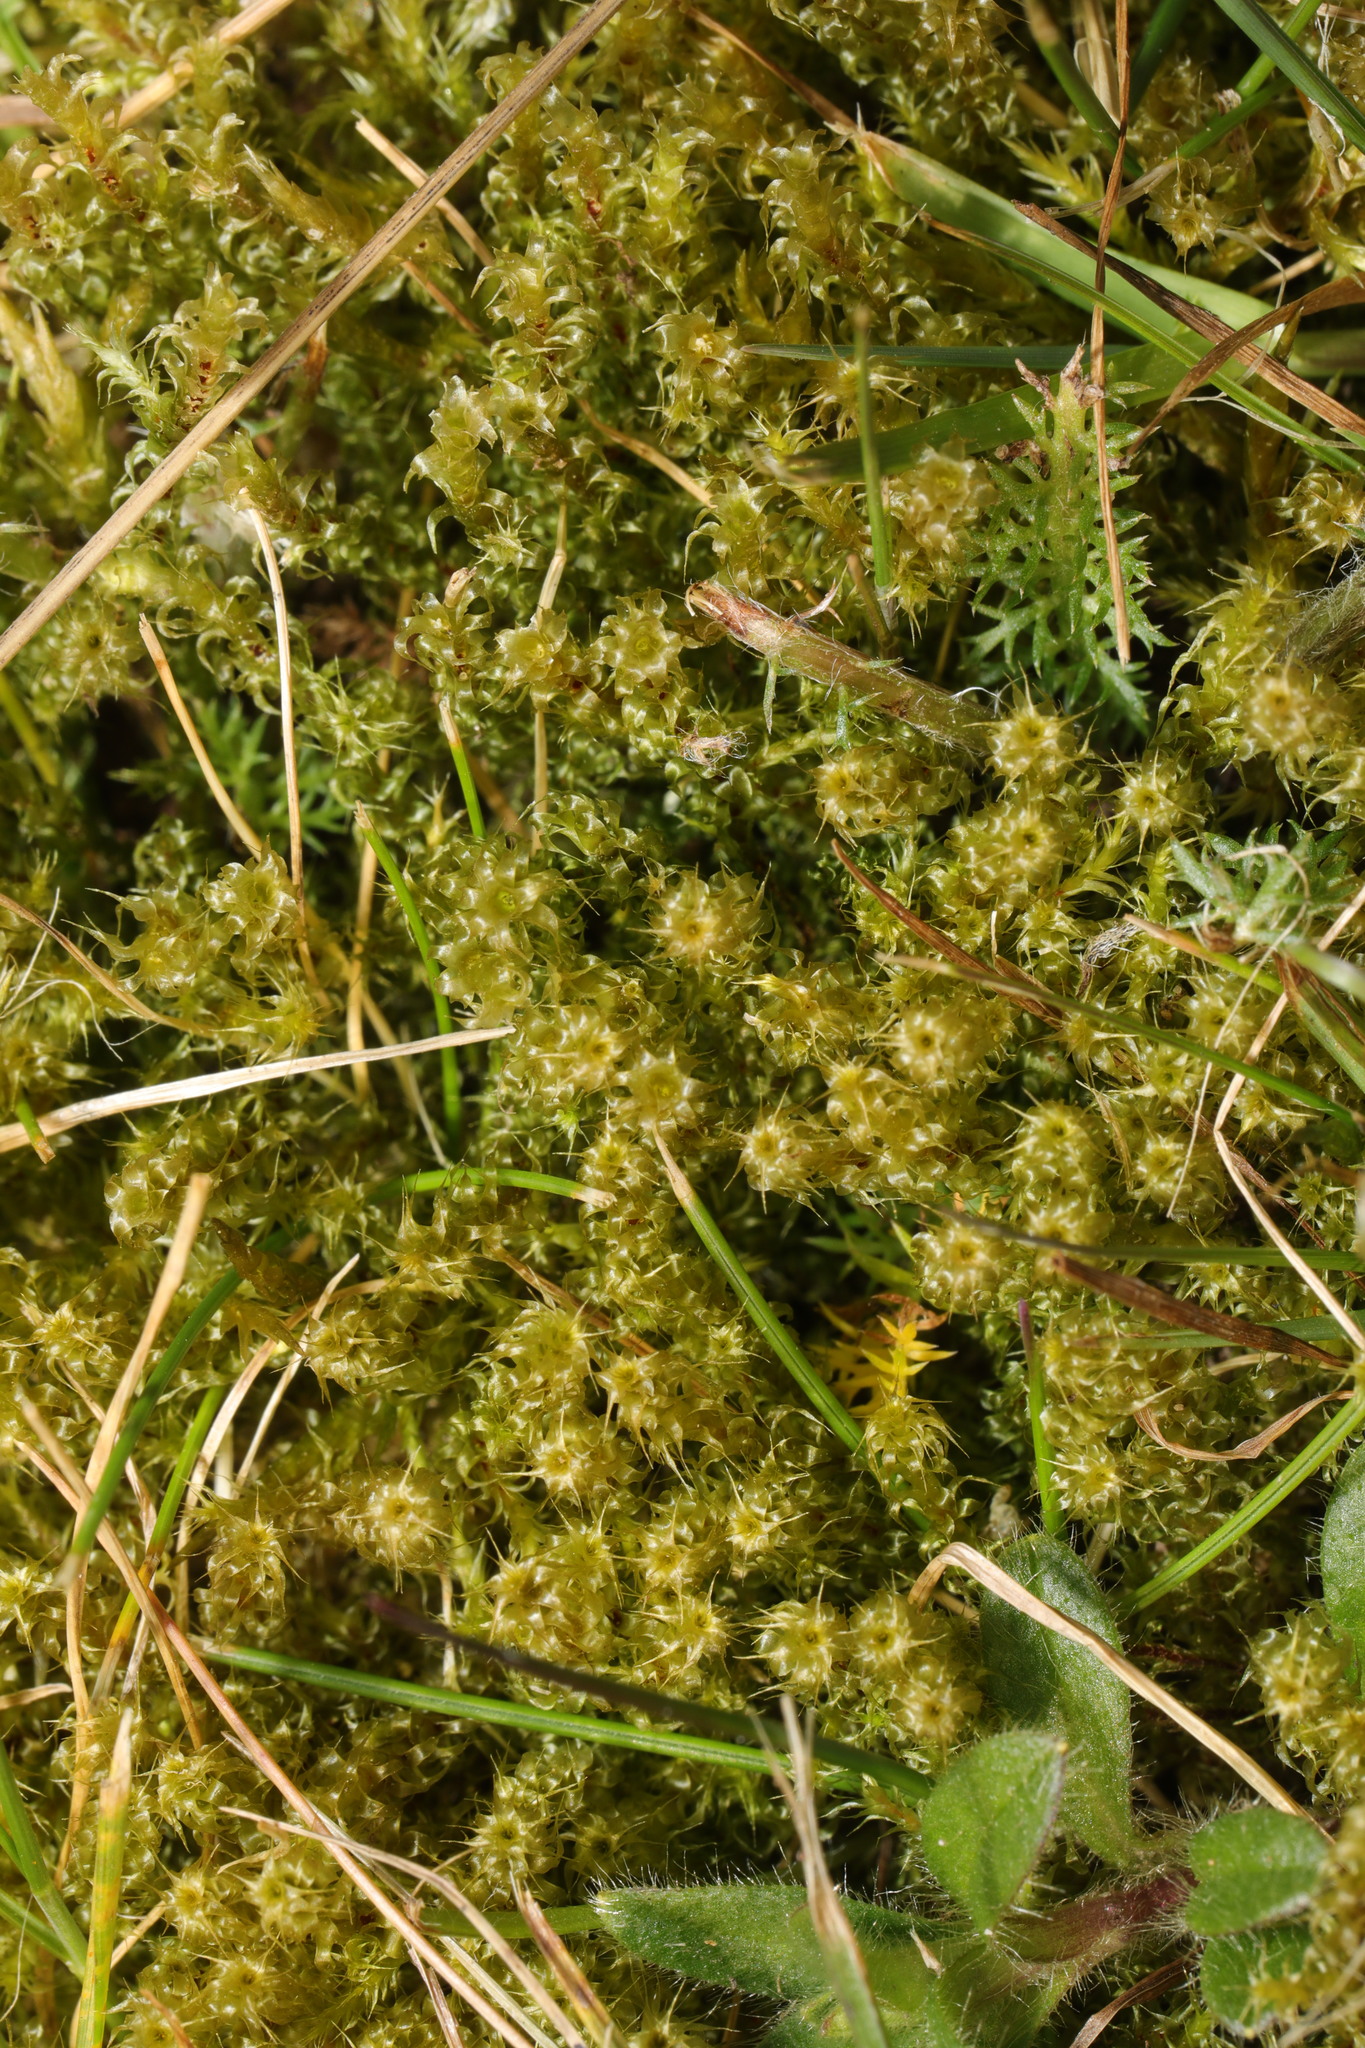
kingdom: Plantae
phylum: Bryophyta
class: Bryopsida
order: Hypnales
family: Hylocomiaceae
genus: Rhytidiadelphus
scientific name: Rhytidiadelphus squarrosus
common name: Springy turf-moss
